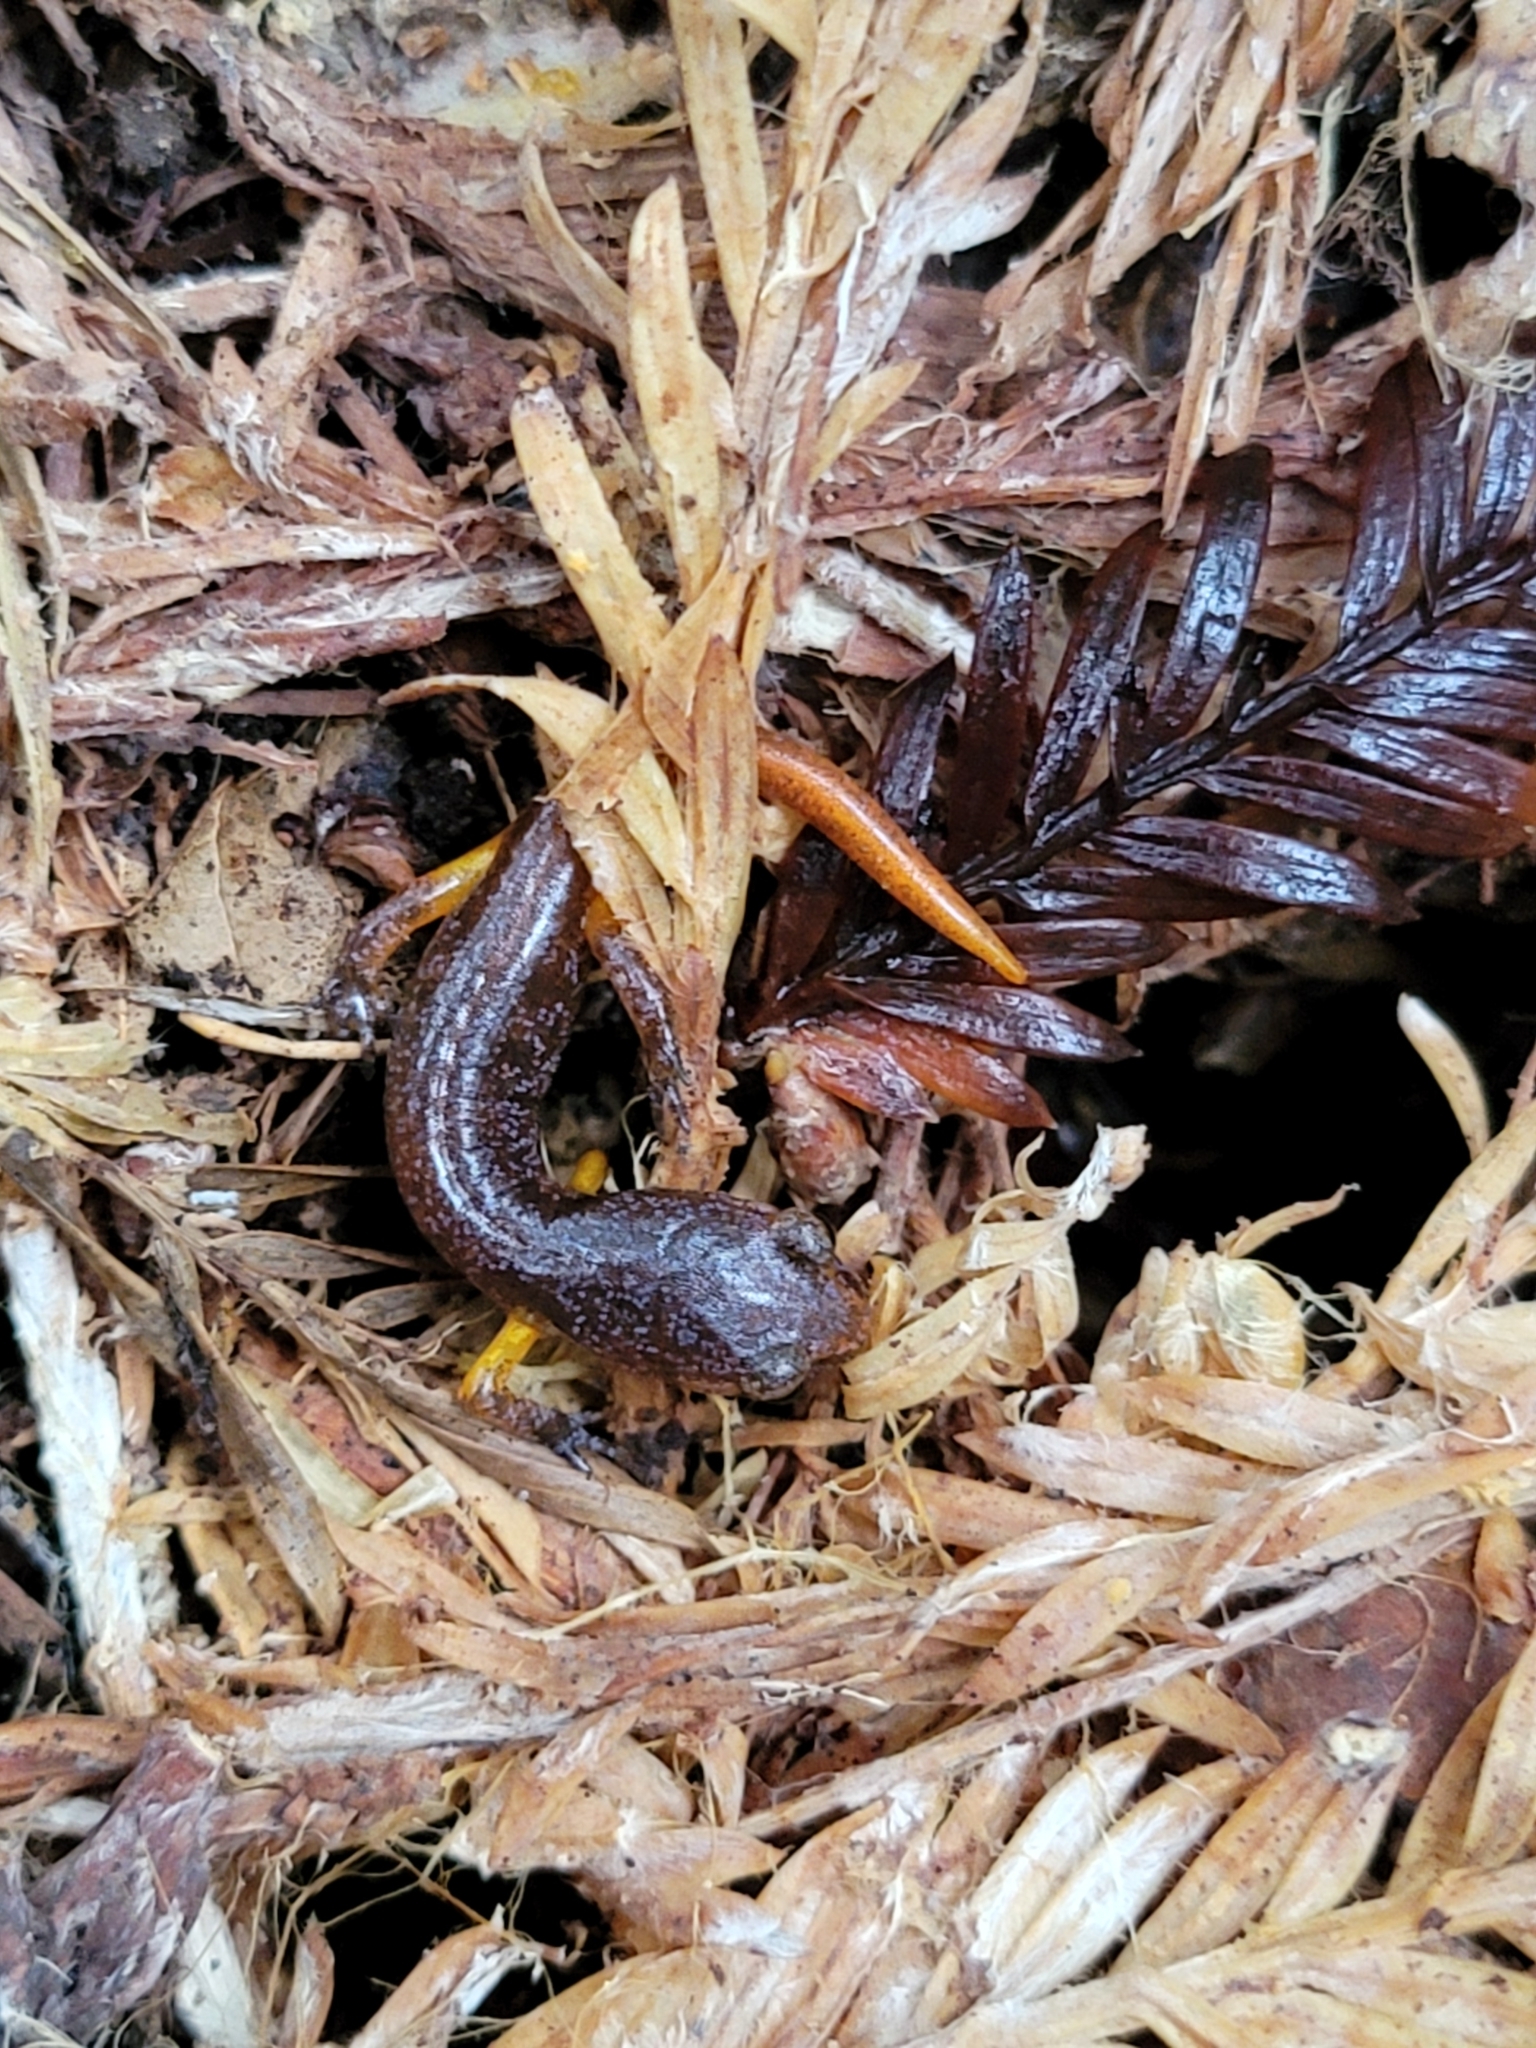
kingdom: Animalia
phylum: Chordata
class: Amphibia
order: Caudata
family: Plethodontidae
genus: Ensatina
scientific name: Ensatina eschscholtzii
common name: Ensatina
